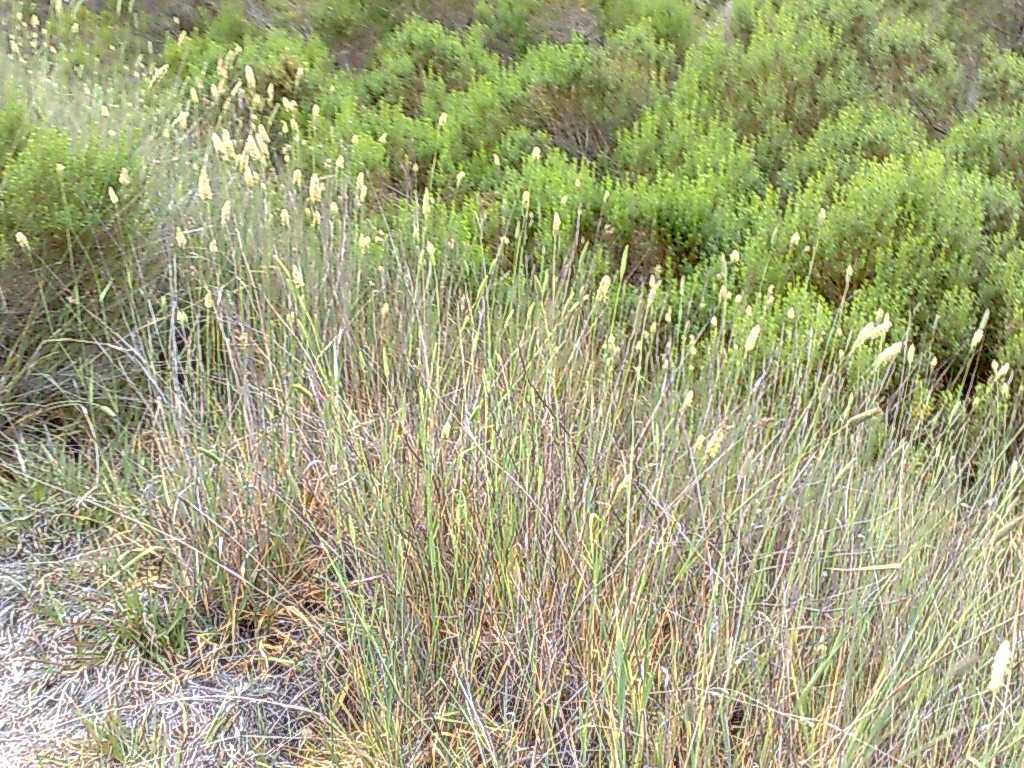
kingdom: Plantae
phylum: Tracheophyta
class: Magnoliopsida
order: Asterales
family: Asteraceae
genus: Baccharis
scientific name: Baccharis pilularis
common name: Coyotebrush
